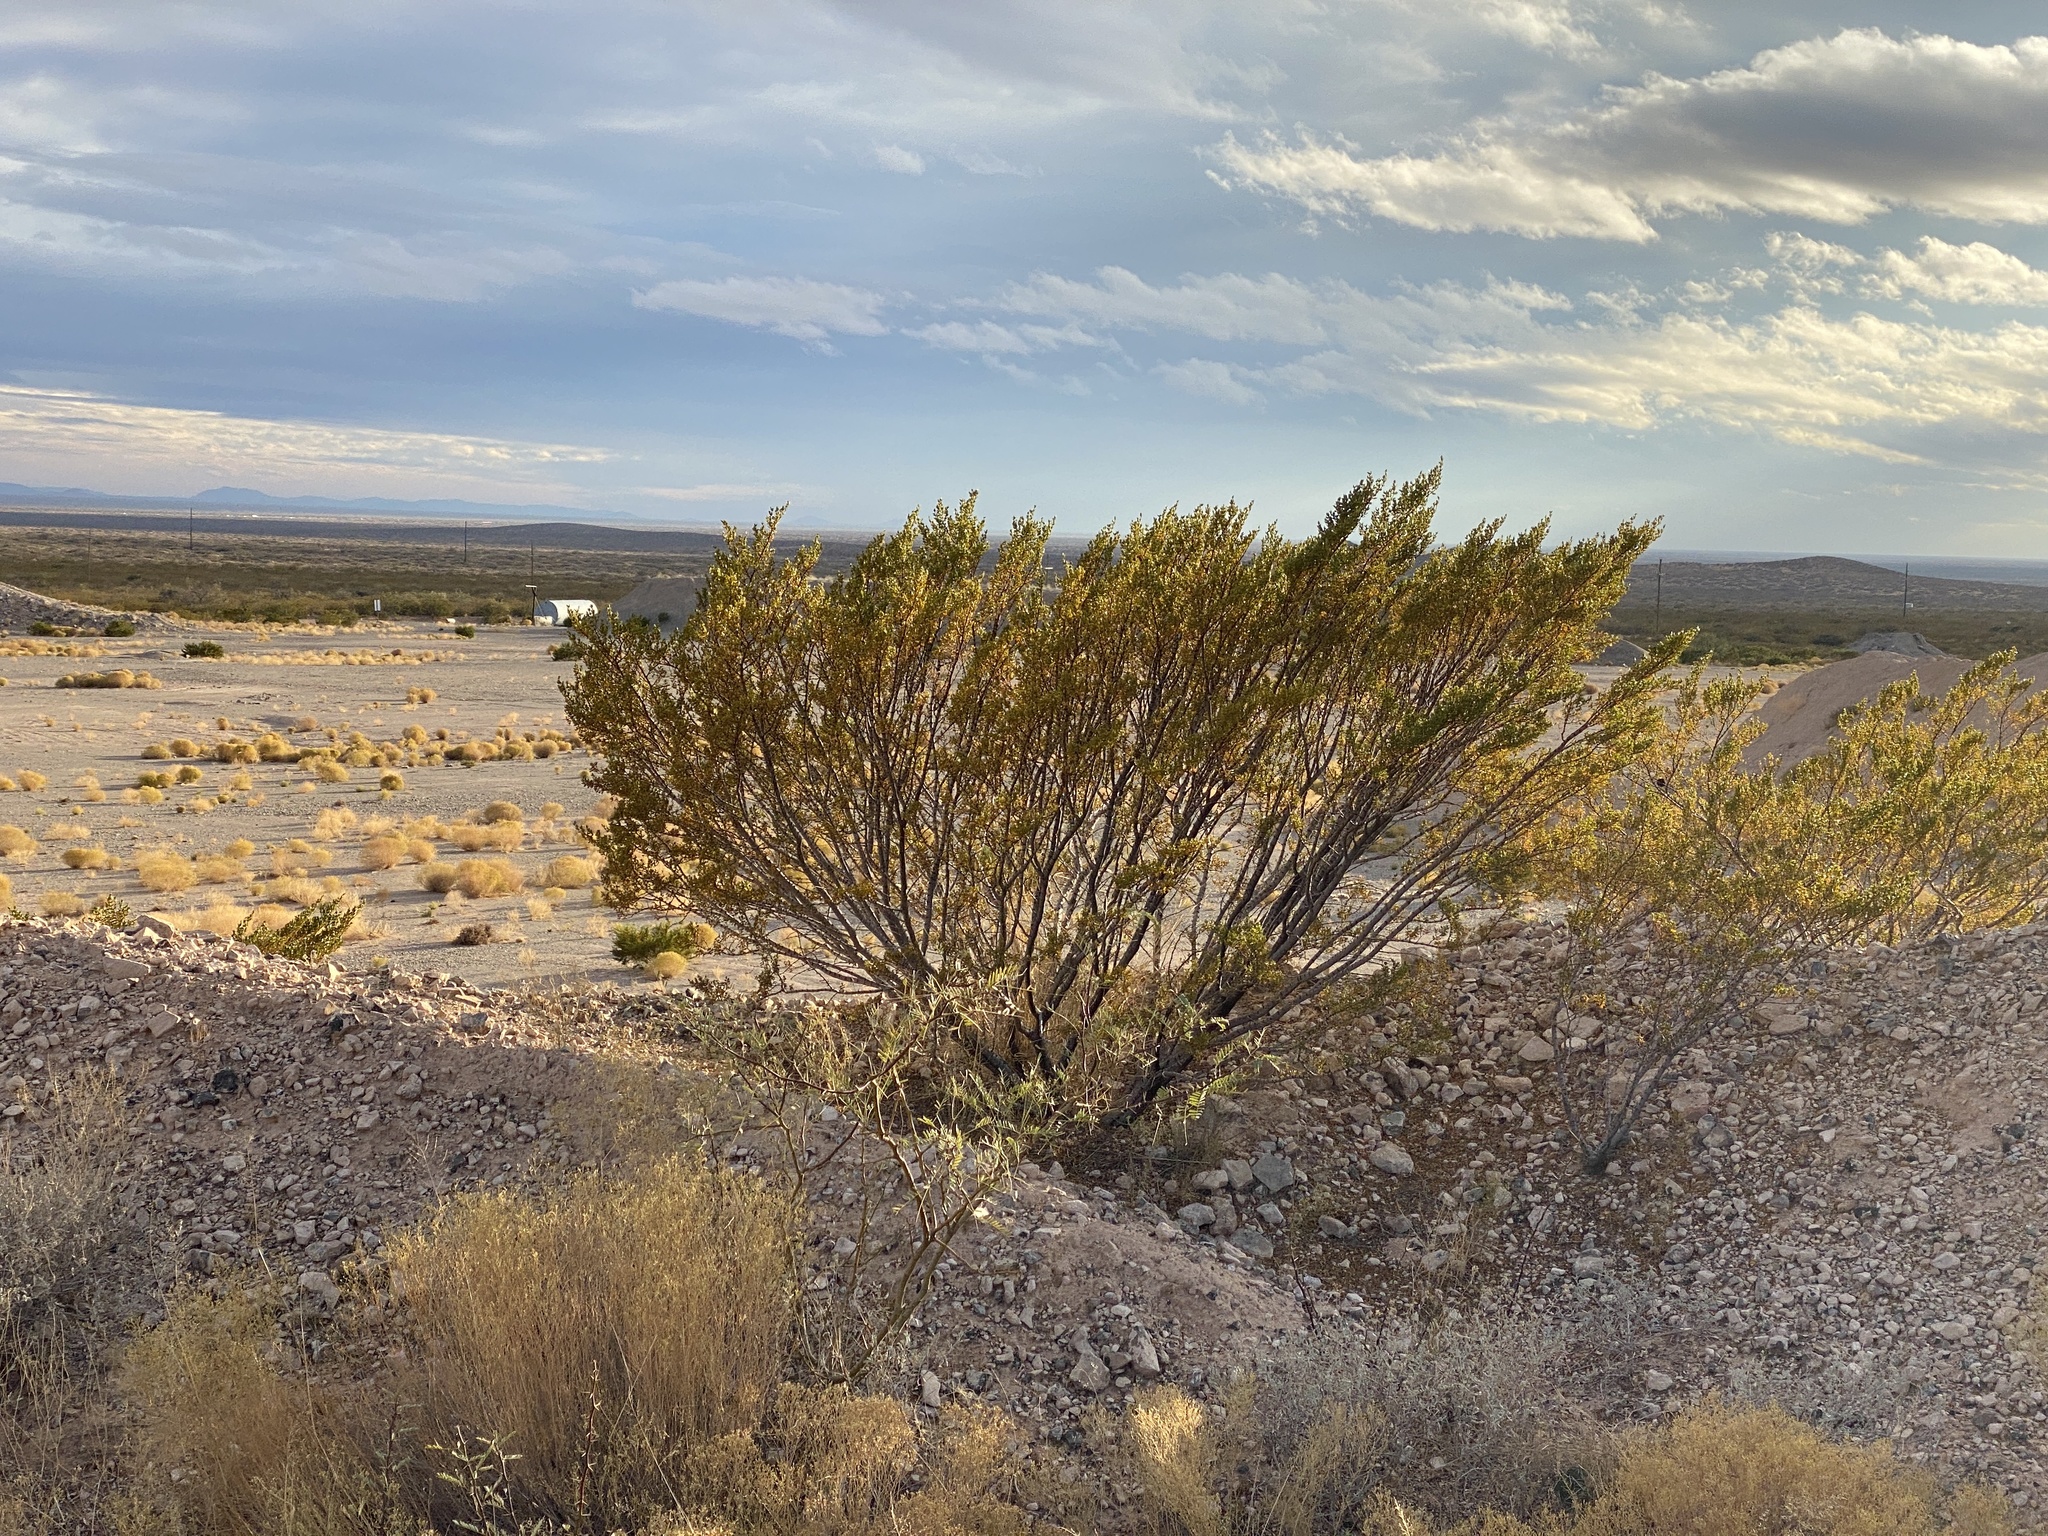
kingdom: Plantae
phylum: Tracheophyta
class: Magnoliopsida
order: Zygophyllales
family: Zygophyllaceae
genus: Larrea
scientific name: Larrea tridentata
